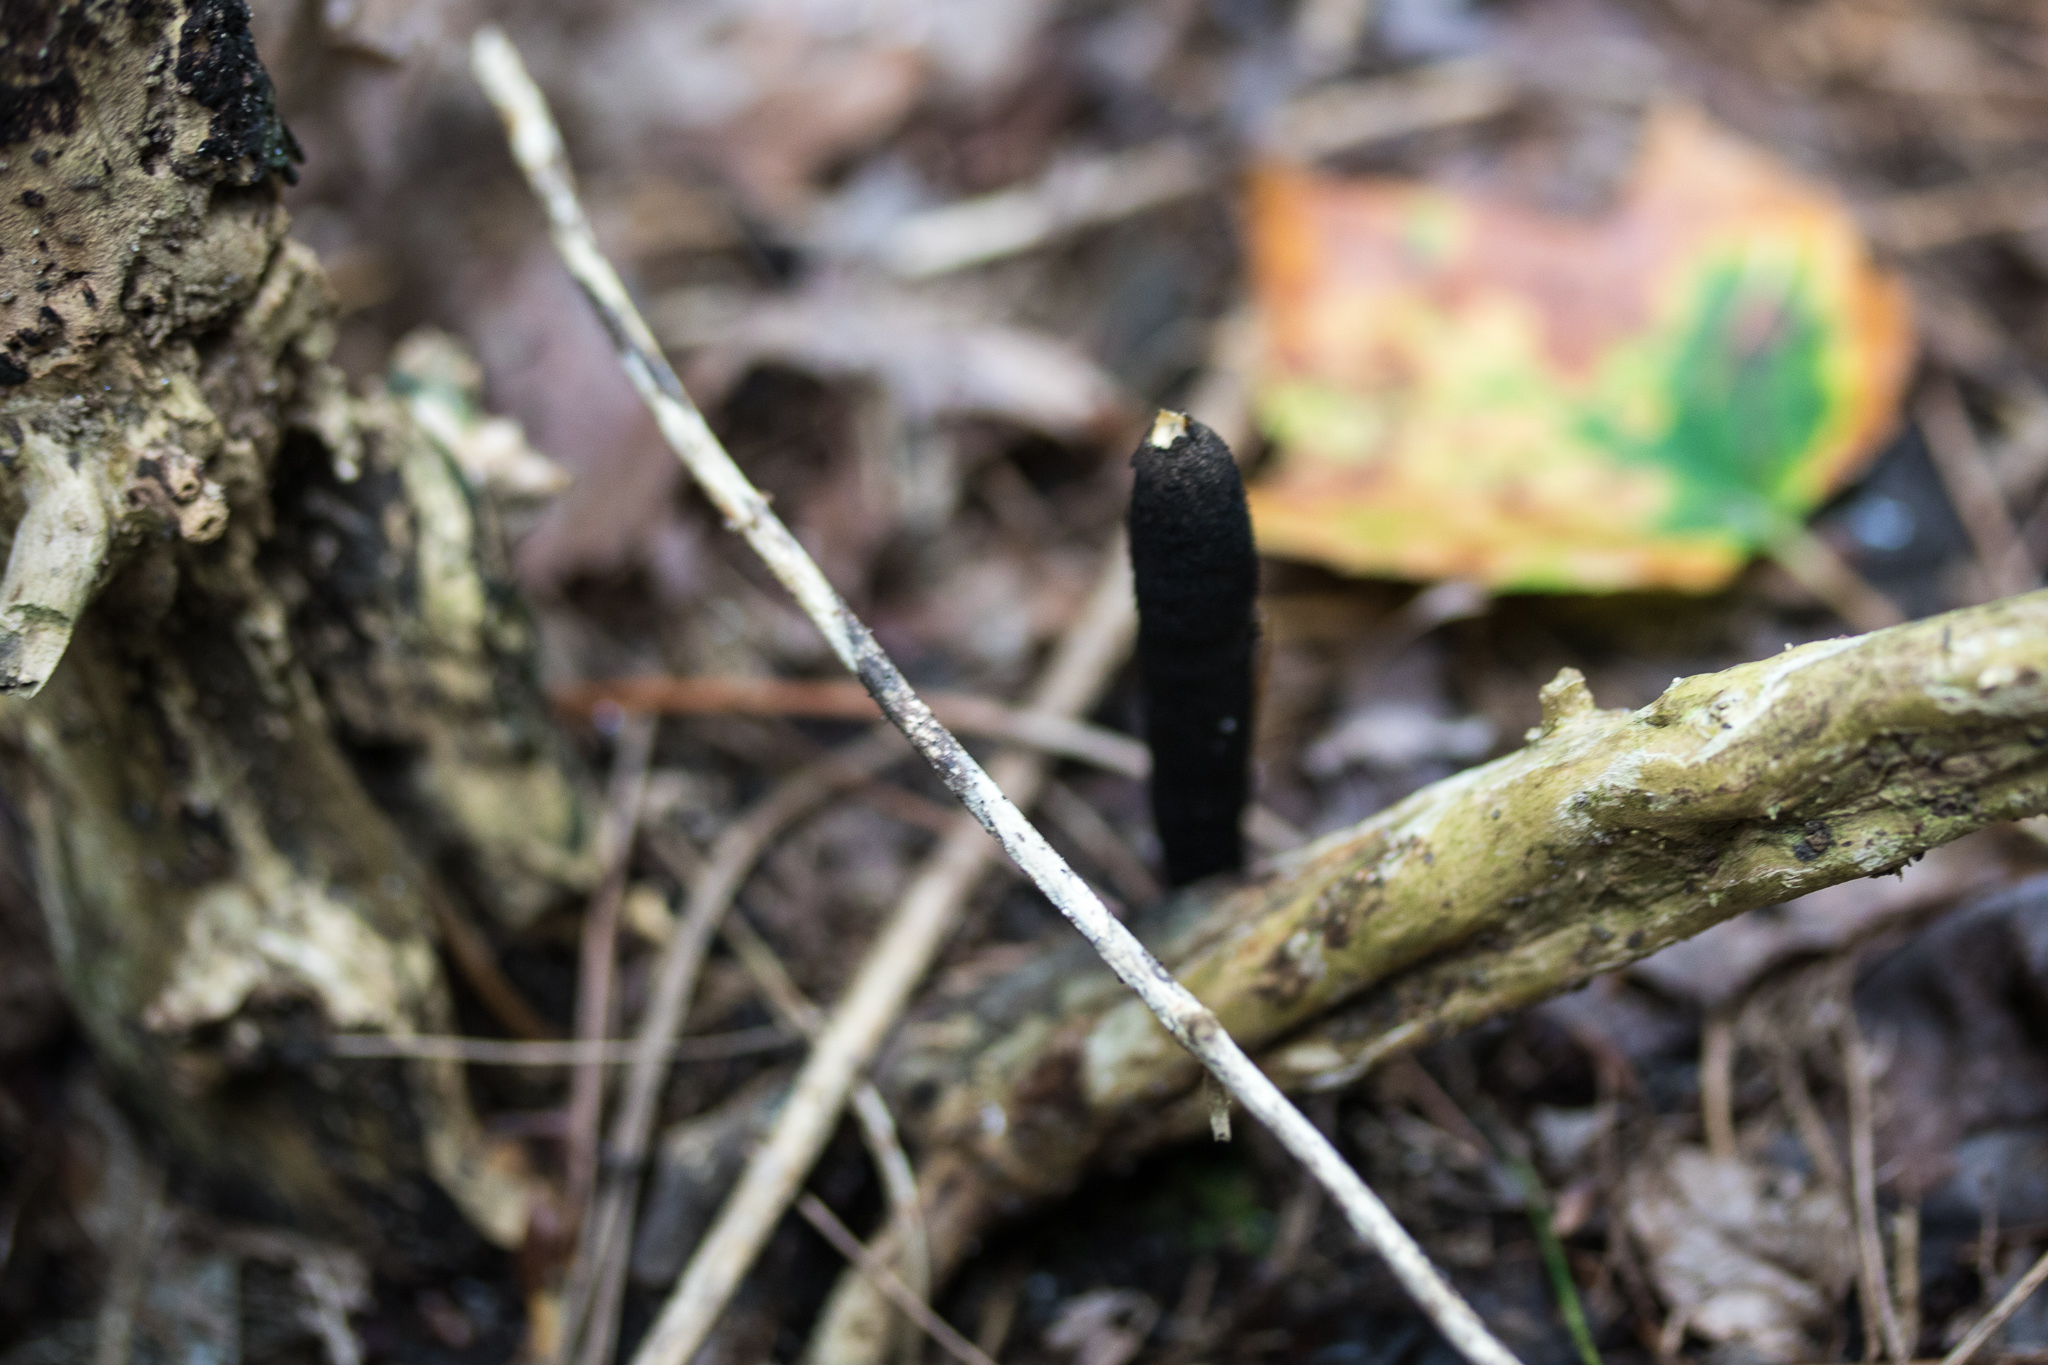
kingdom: Fungi
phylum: Ascomycota
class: Sordariomycetes
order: Xylariales
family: Xylariaceae
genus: Xylaria
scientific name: Xylaria longipes
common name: Dead moll's fingers
